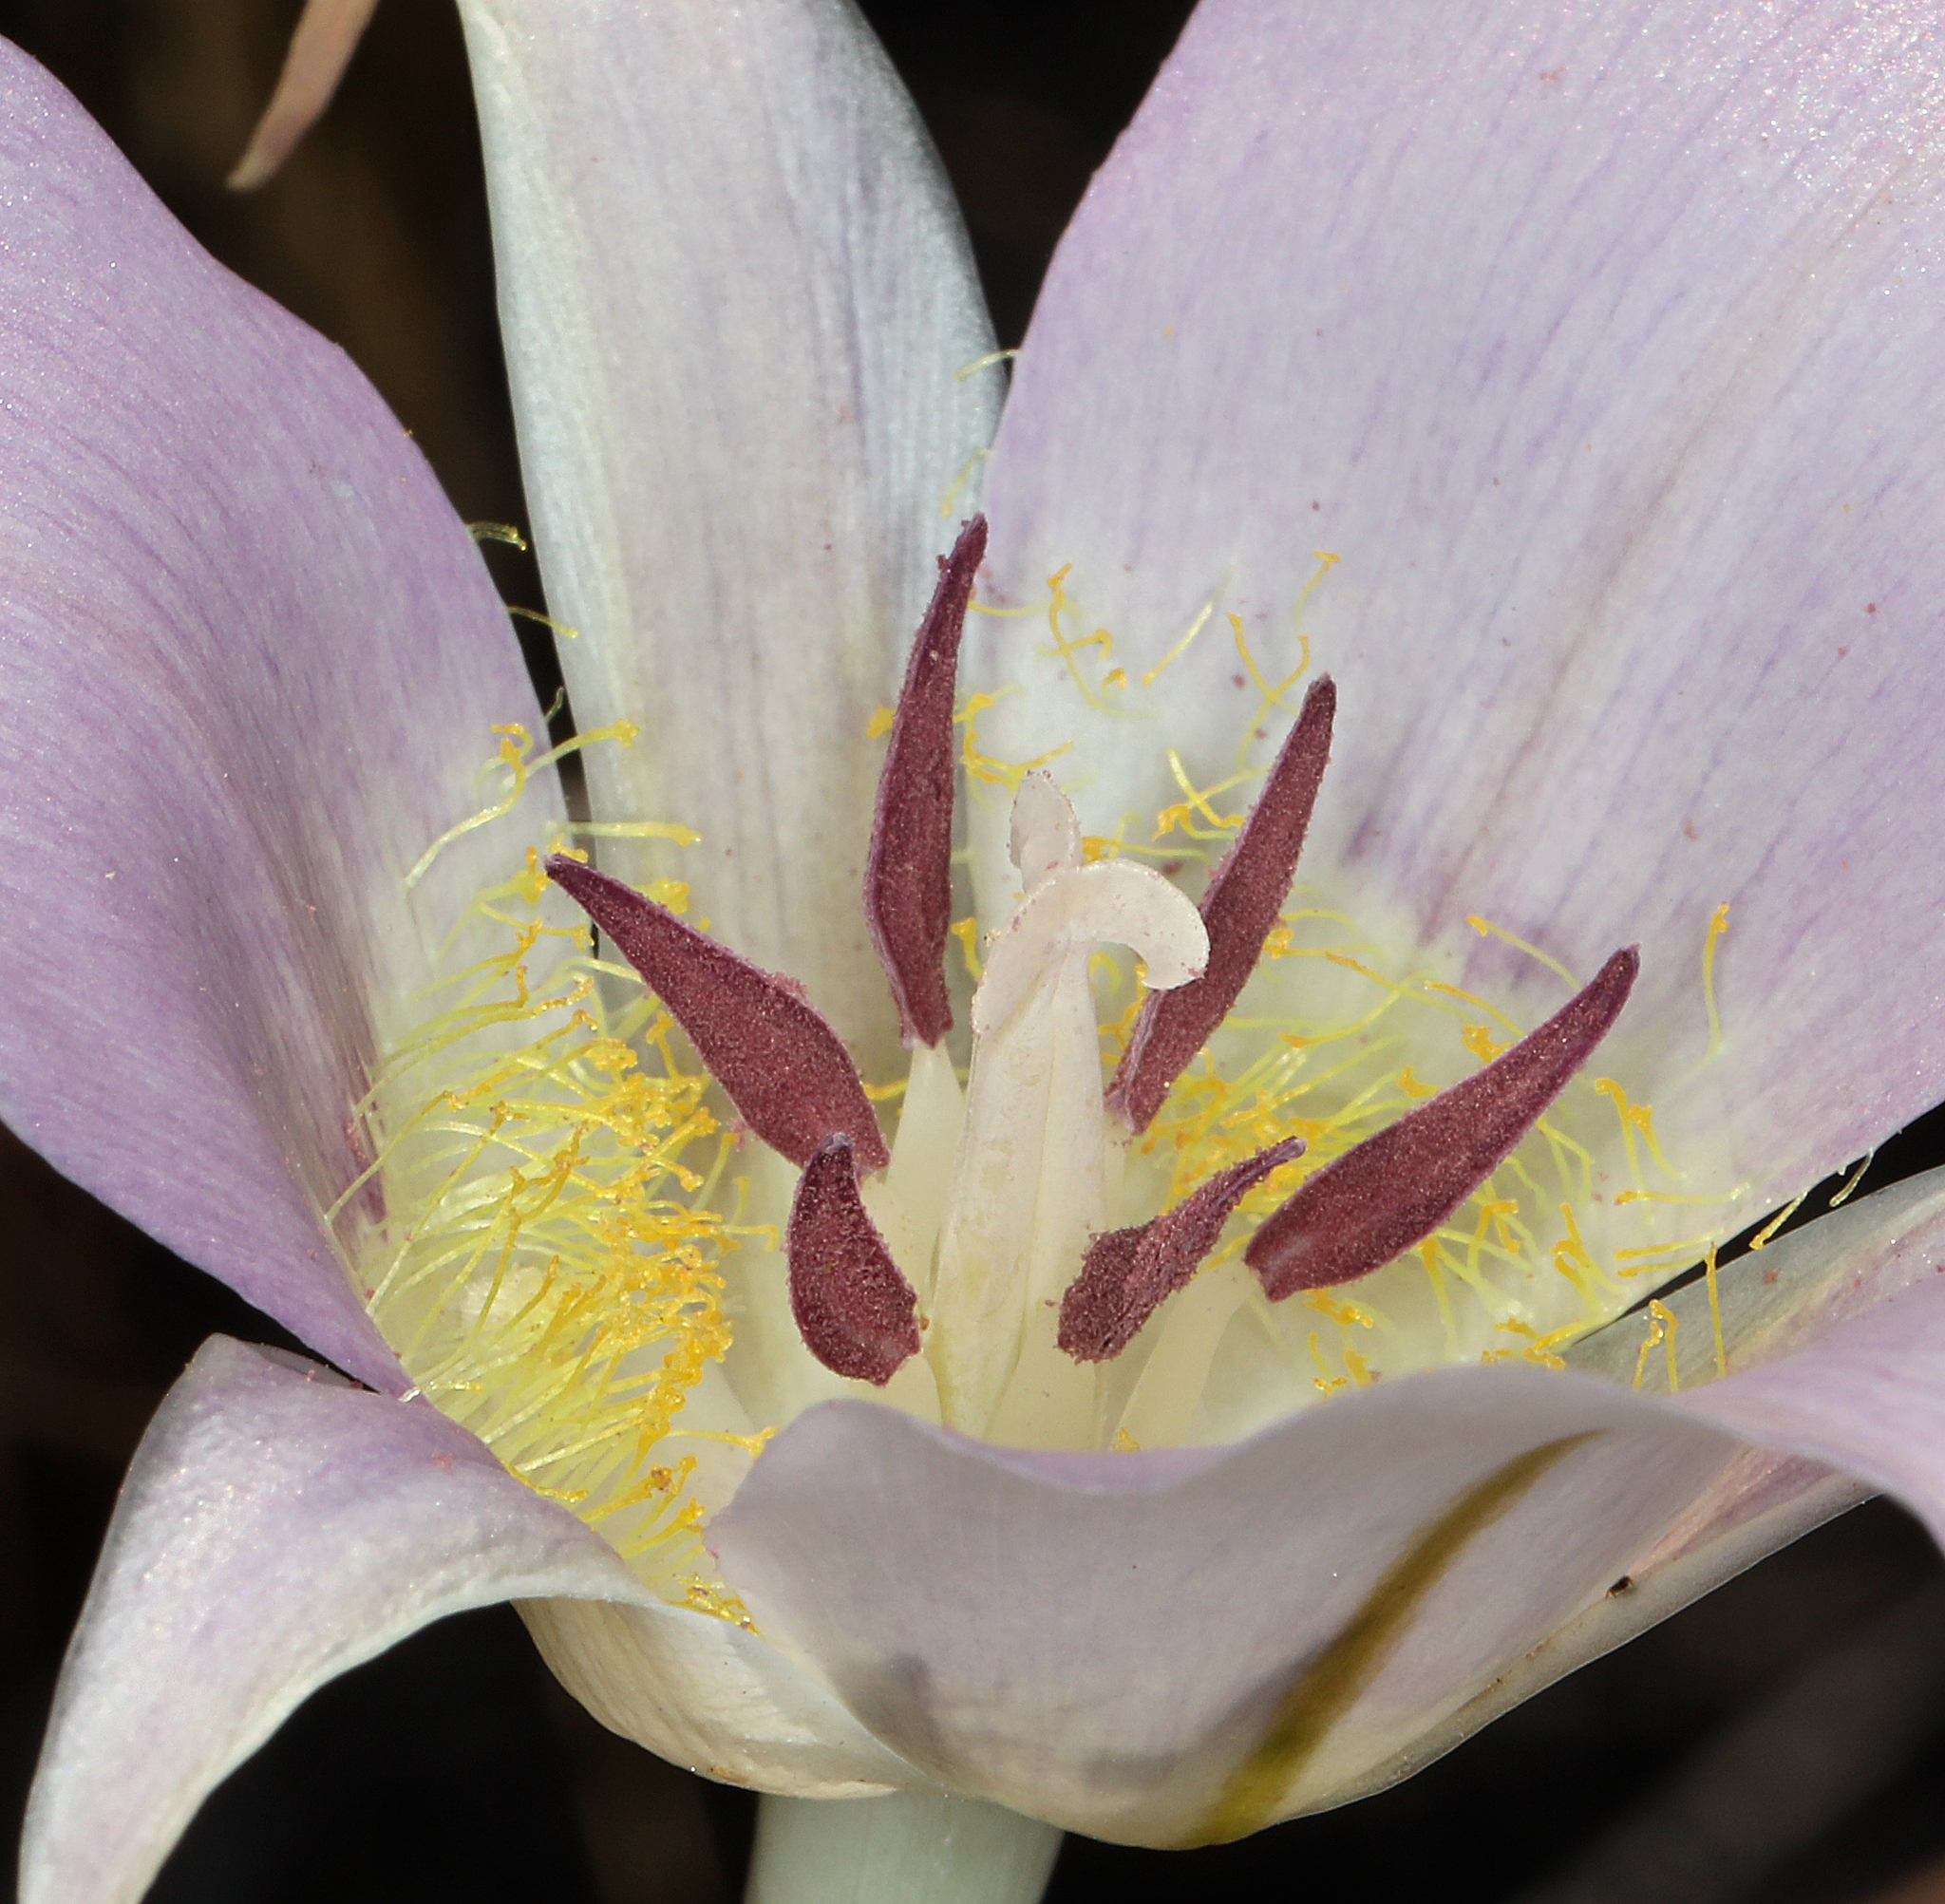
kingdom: Plantae
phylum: Tracheophyta
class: Liliopsida
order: Liliales
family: Liliaceae
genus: Calochortus
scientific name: Calochortus macrocarpus
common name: Green-band mariposa lily
